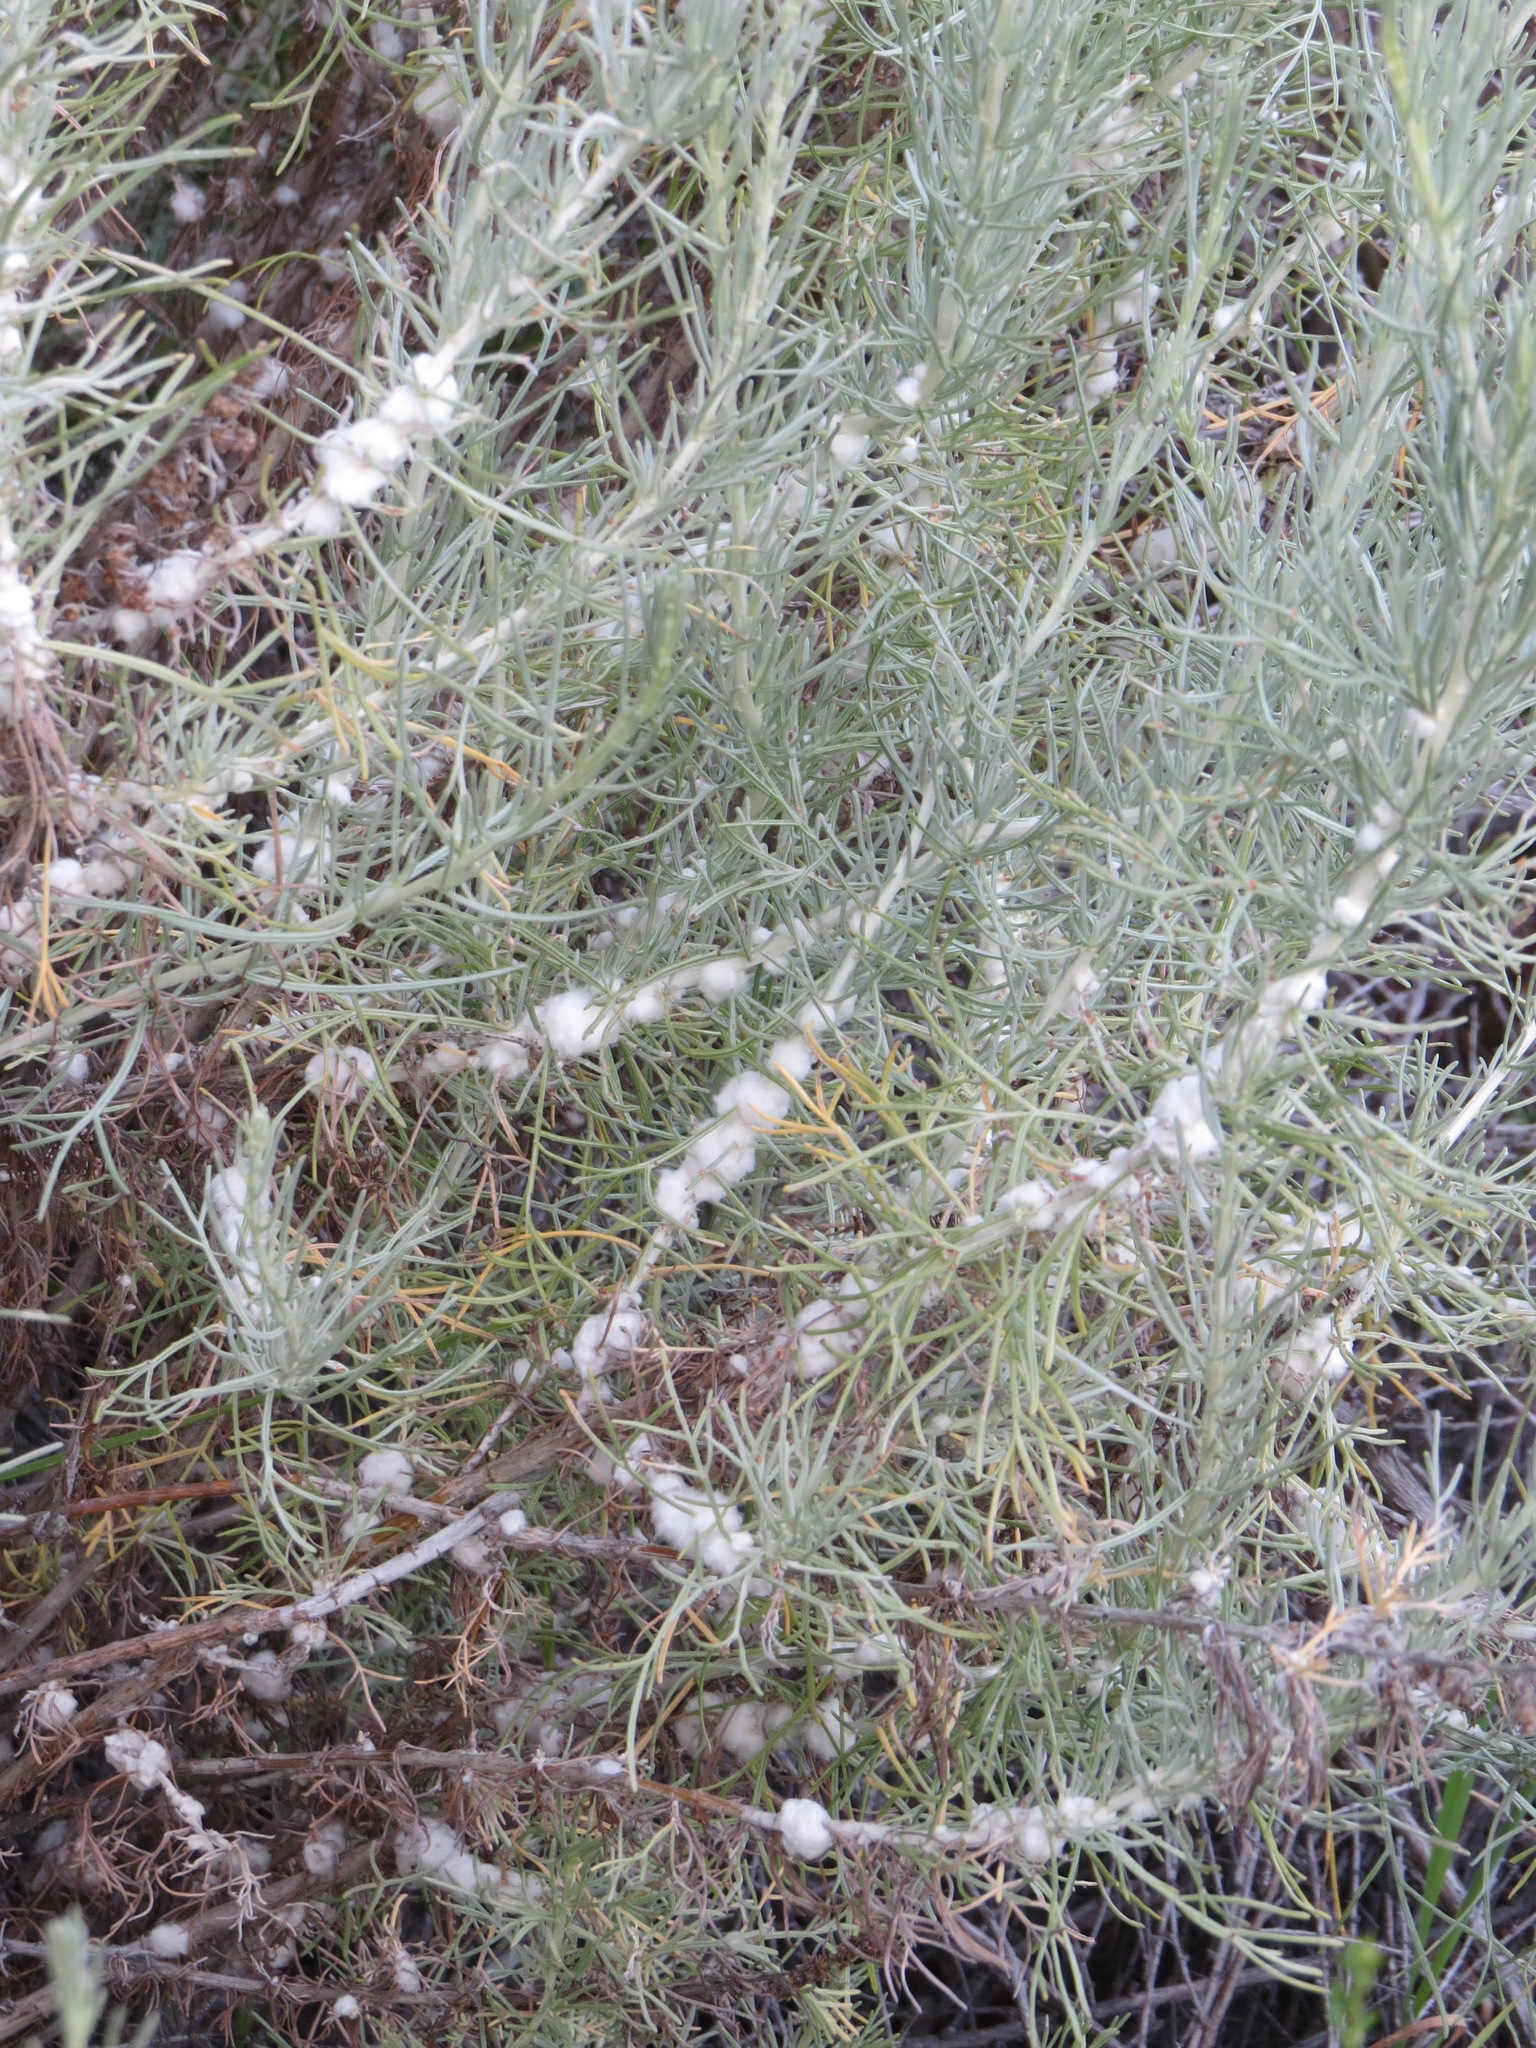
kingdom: Animalia
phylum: Arthropoda
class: Insecta
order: Diptera
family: Cecidomyiidae
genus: Rhopalomyia
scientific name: Rhopalomyia floccosa
